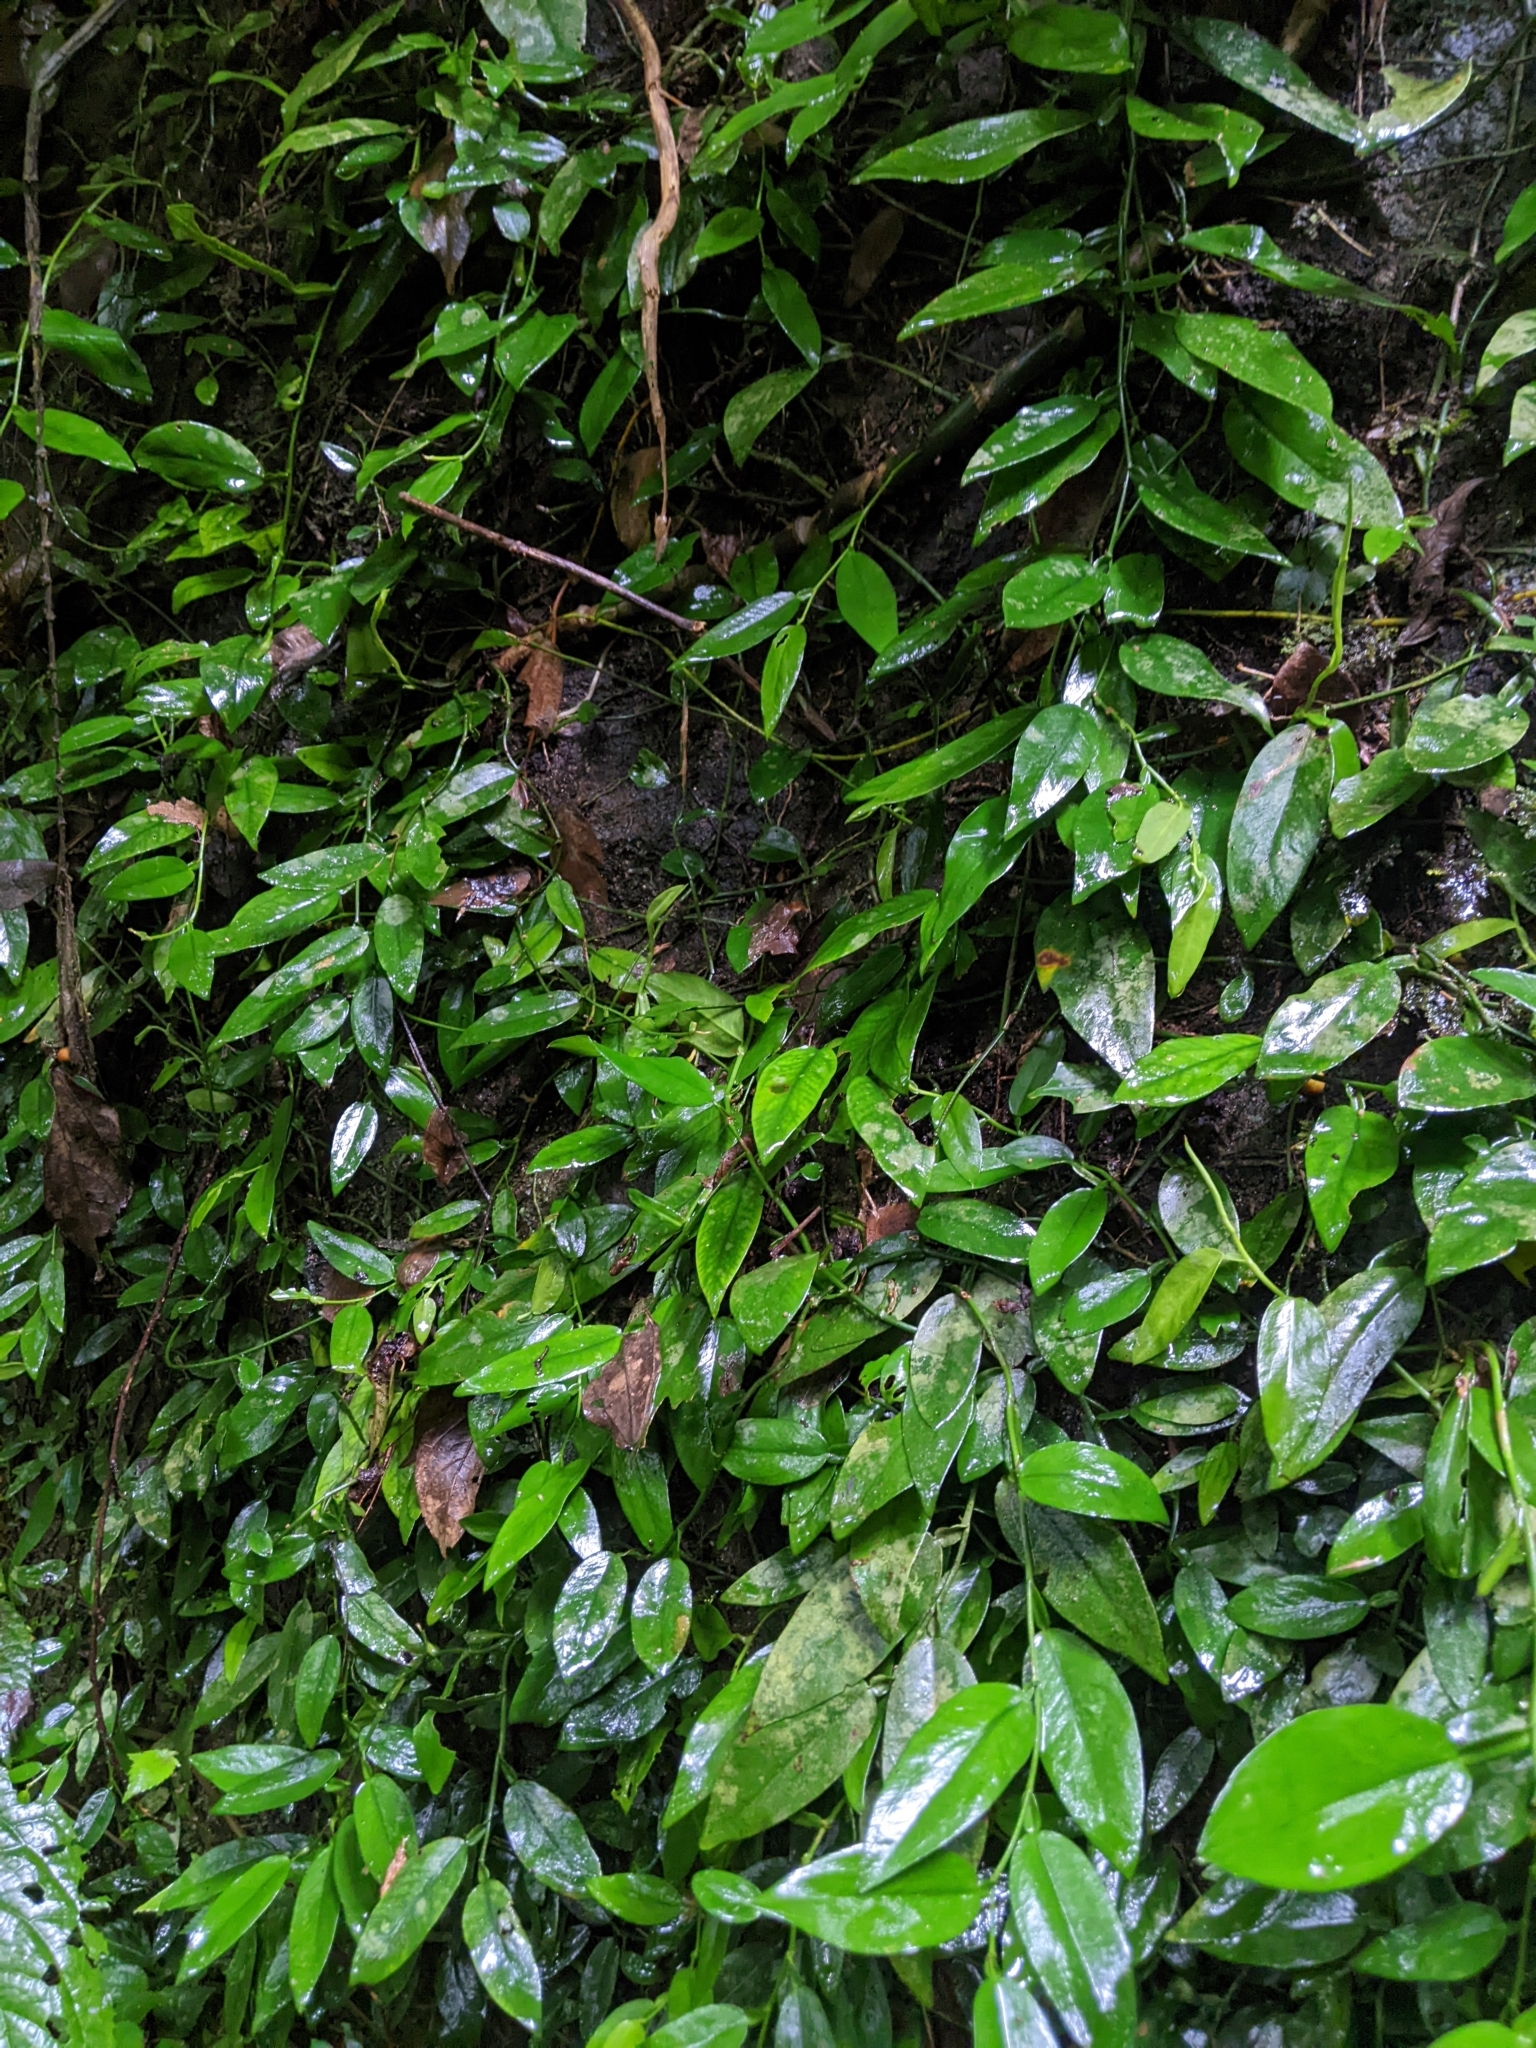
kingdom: Plantae
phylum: Tracheophyta
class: Liliopsida
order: Alismatales
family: Araceae
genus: Pothos
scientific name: Pothos chinensis
